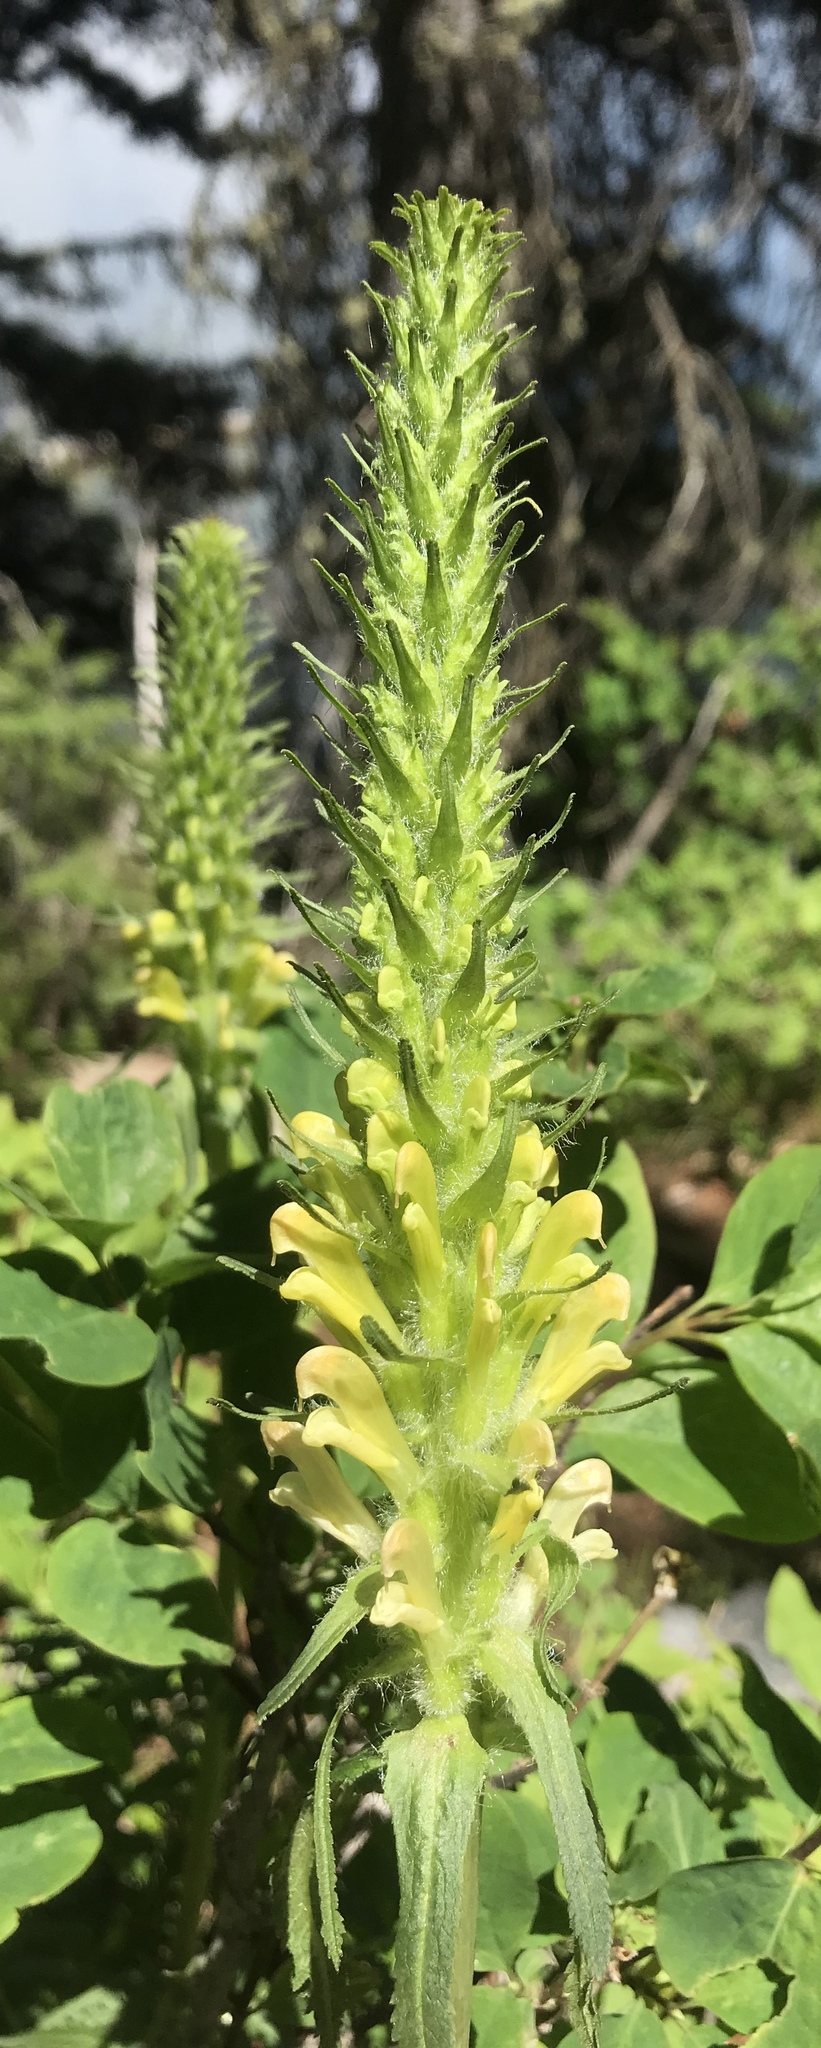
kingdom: Plantae
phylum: Tracheophyta
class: Magnoliopsida
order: Lamiales
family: Orobanchaceae
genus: Pedicularis
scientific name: Pedicularis bracteosa
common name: Bracted lousewort
